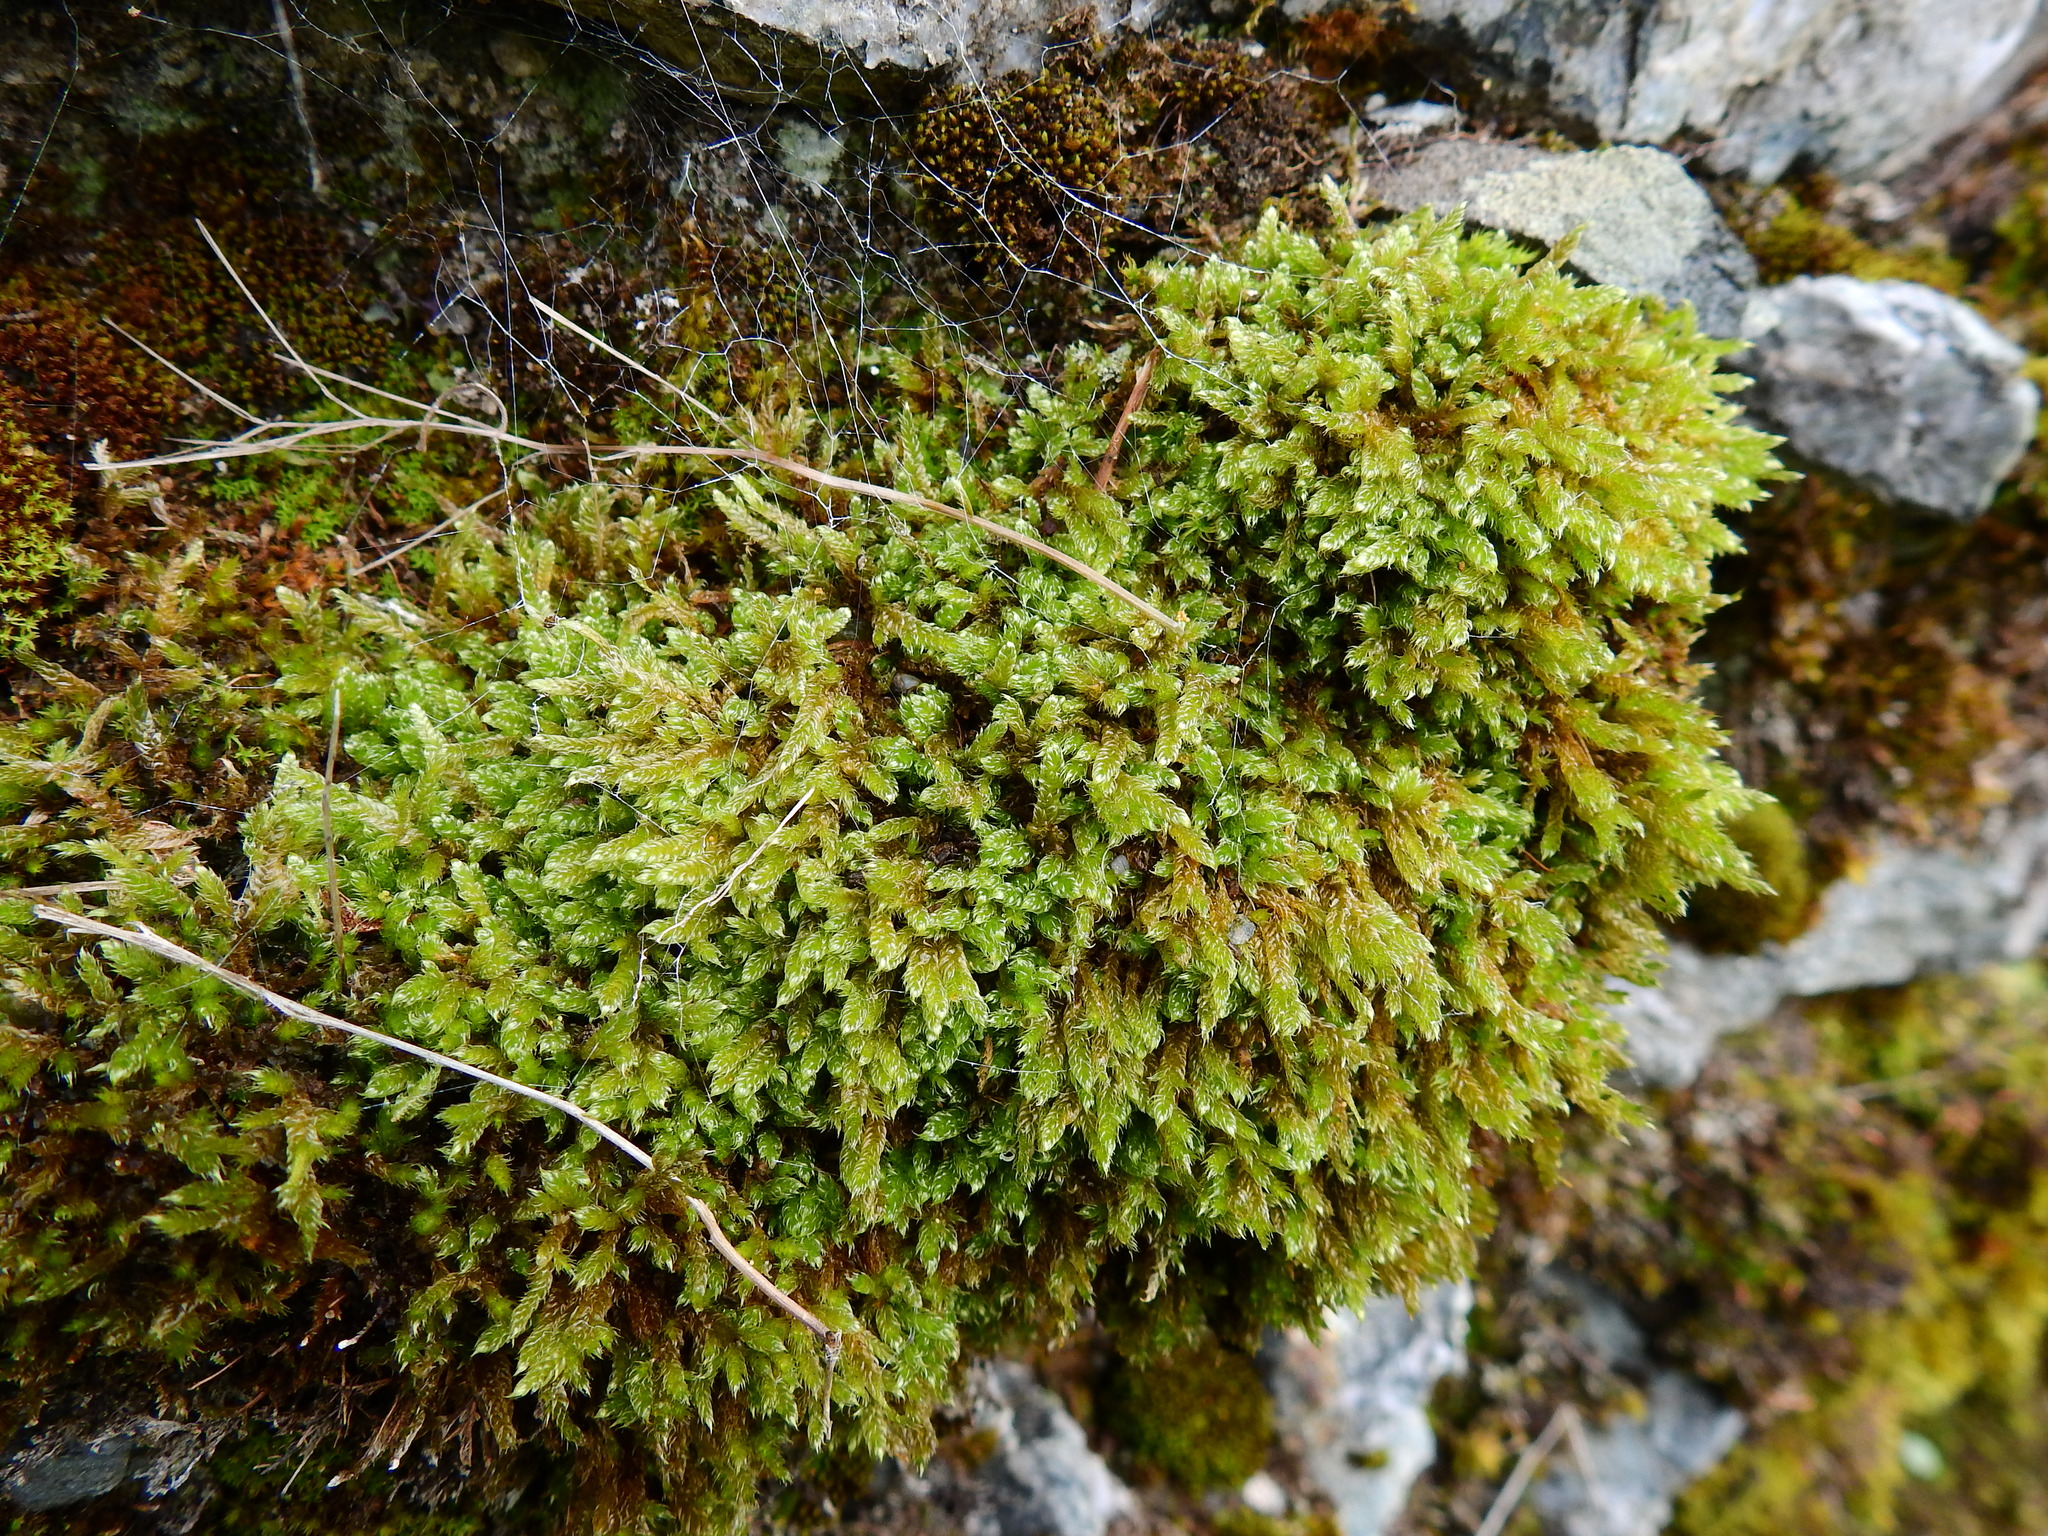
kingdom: Plantae
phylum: Bryophyta
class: Bryopsida
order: Hypnales
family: Hypnaceae
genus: Hypnum
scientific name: Hypnum cupressiforme
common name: Cypress-leaved plait-moss
